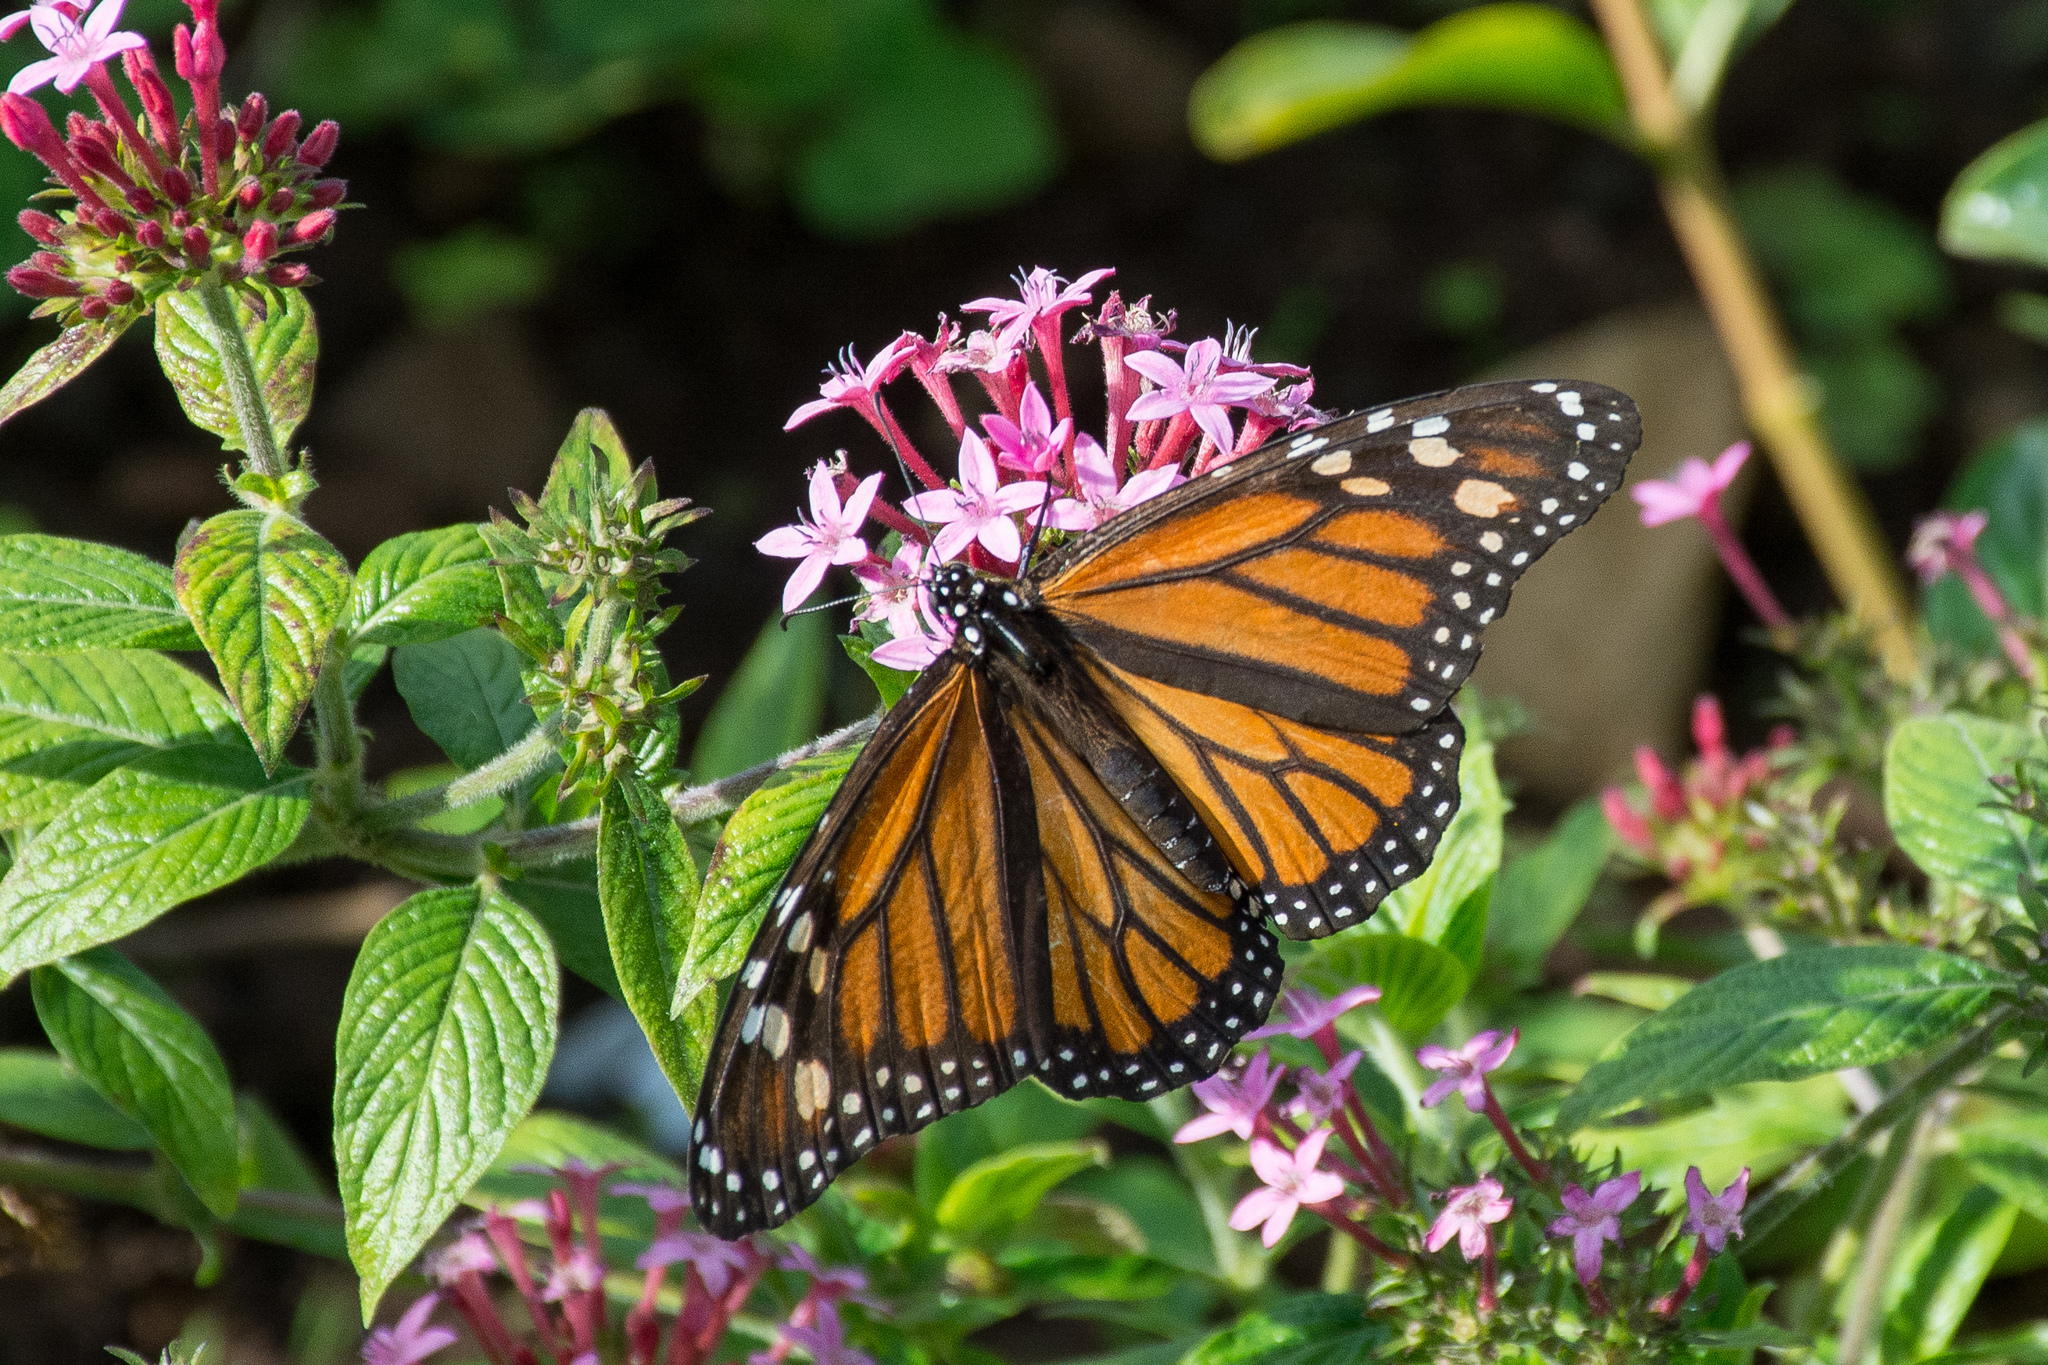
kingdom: Animalia
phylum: Arthropoda
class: Insecta
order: Lepidoptera
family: Nymphalidae
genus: Danaus
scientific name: Danaus plexippus
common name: Monarch
